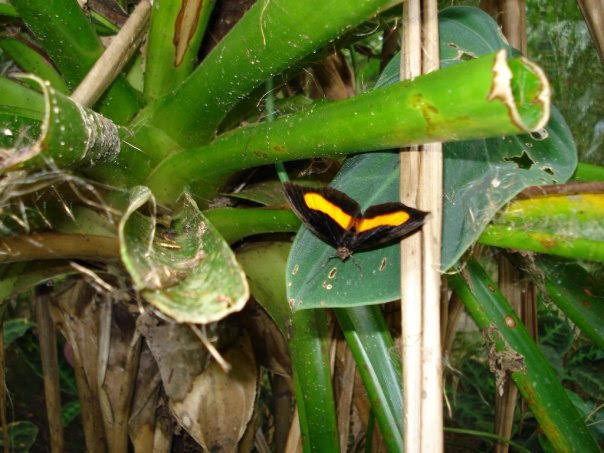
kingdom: Animalia
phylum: Arthropoda
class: Insecta
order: Lepidoptera
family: Nymphalidae
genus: Catonephele
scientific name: Catonephele orites
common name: Orange-banded shoemaker
